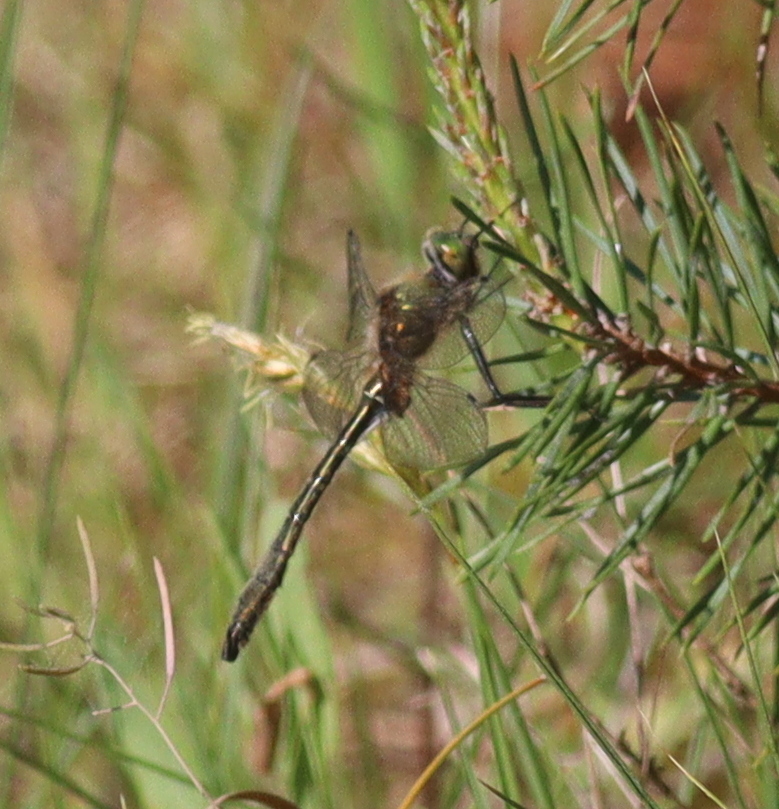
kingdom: Animalia
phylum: Arthropoda
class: Insecta
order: Odonata
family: Corduliidae
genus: Cordulia
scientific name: Cordulia aenea
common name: Downy emerald
